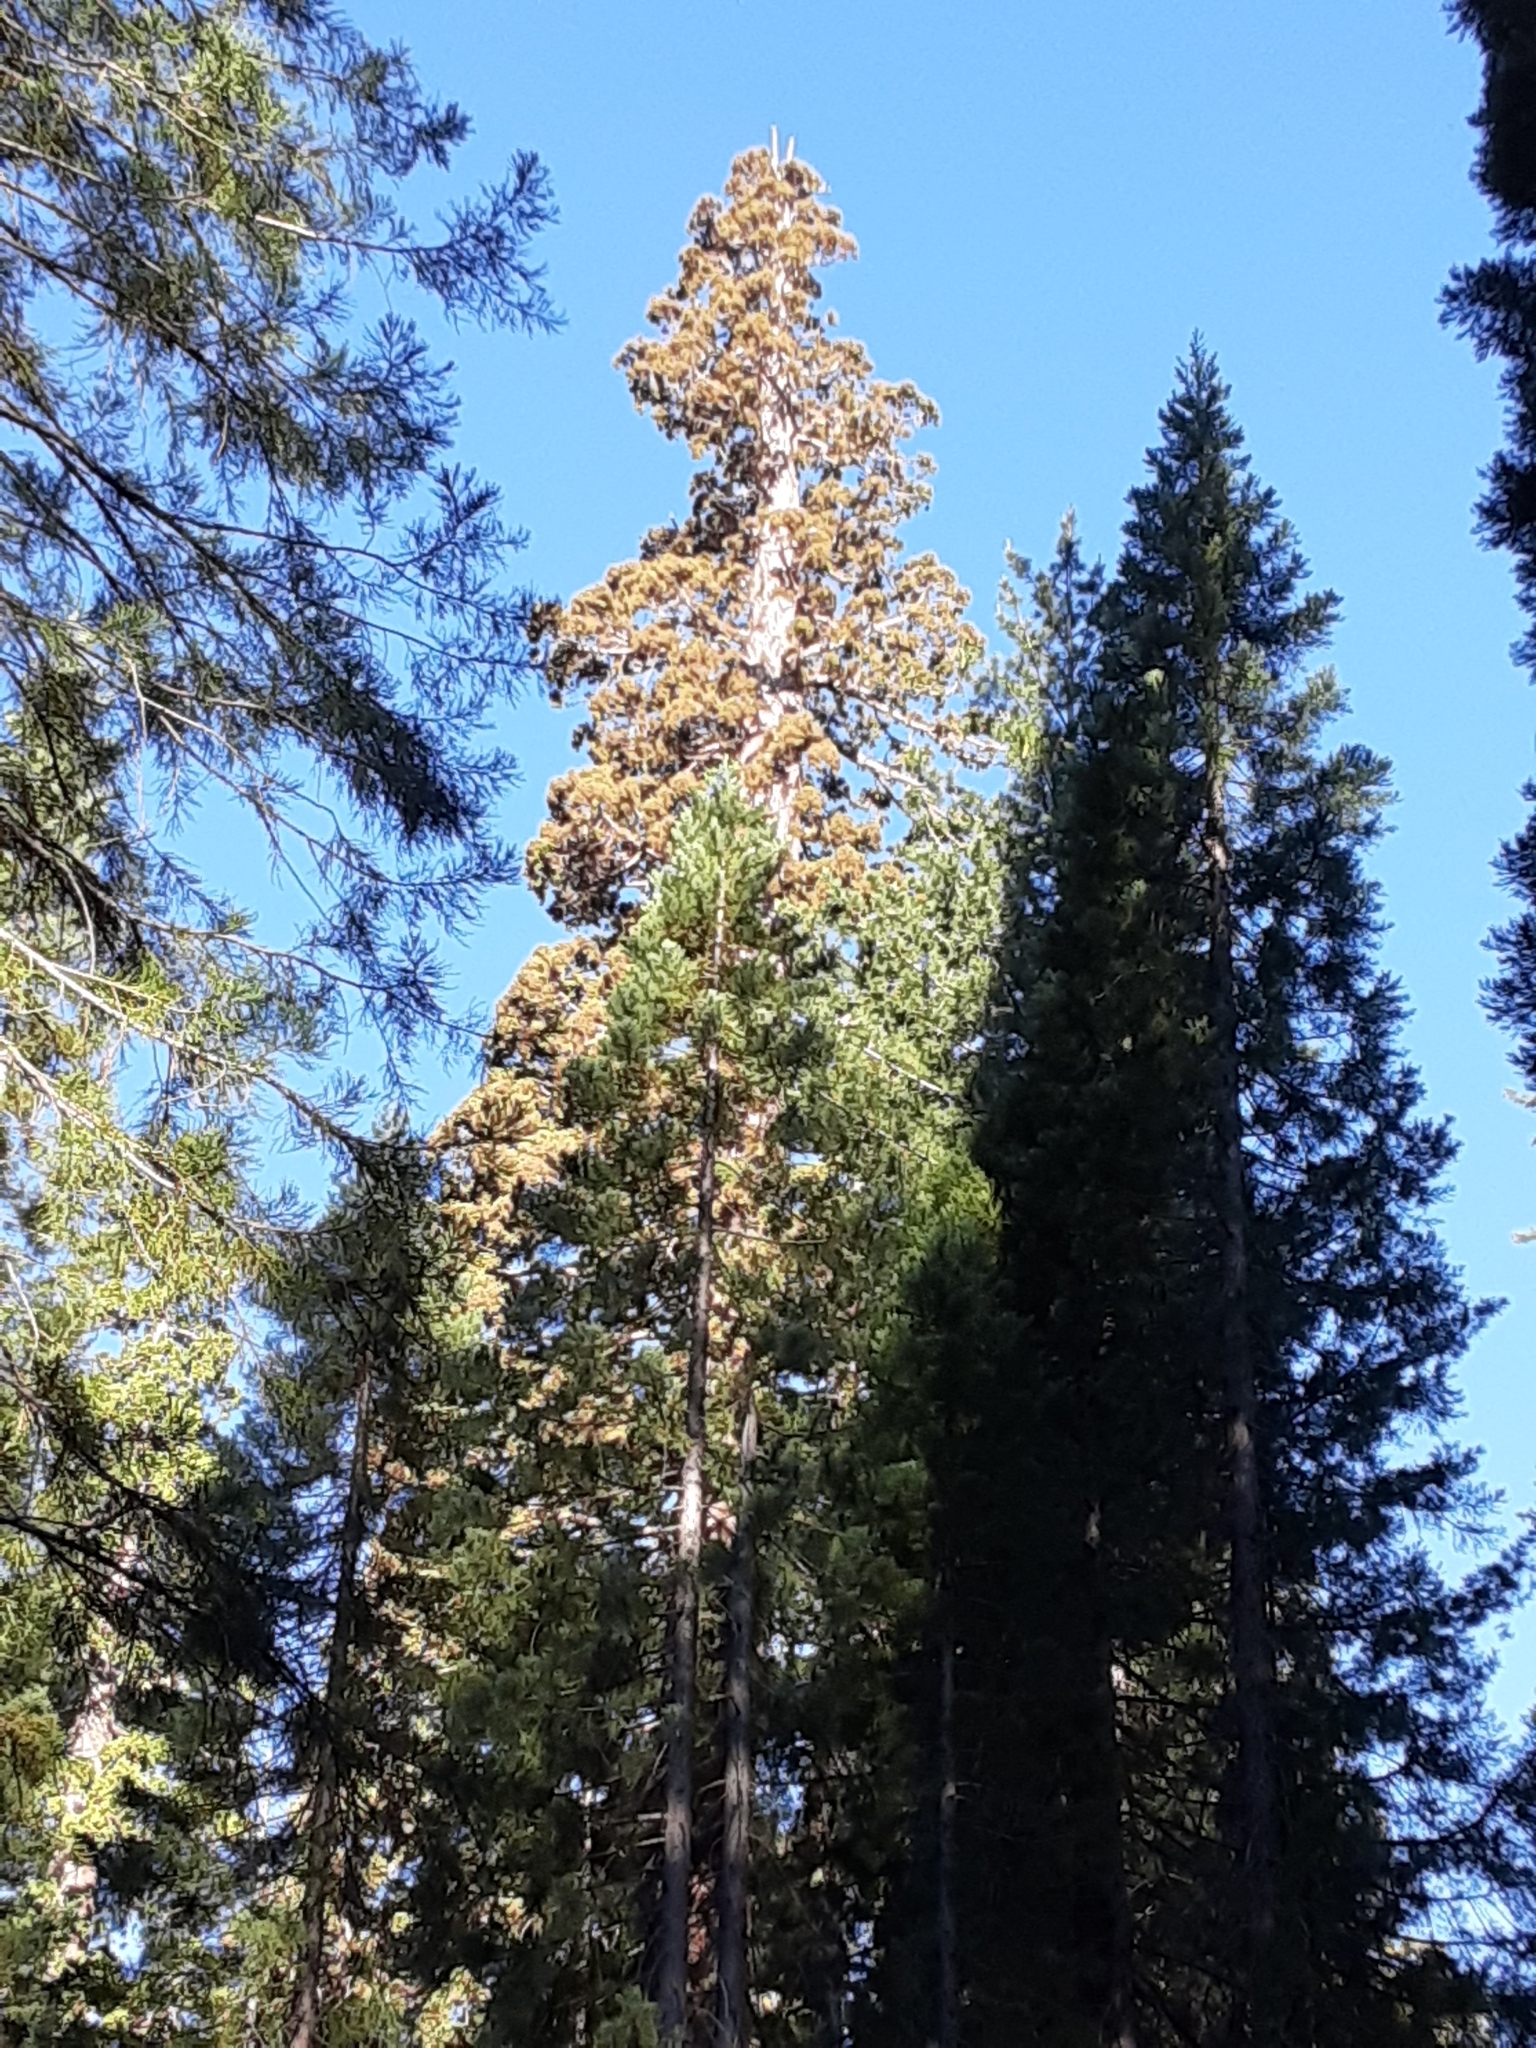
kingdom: Plantae
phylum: Tracheophyta
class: Pinopsida
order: Pinales
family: Cupressaceae
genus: Sequoiadendron
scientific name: Sequoiadendron giganteum
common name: Wellingtonia
